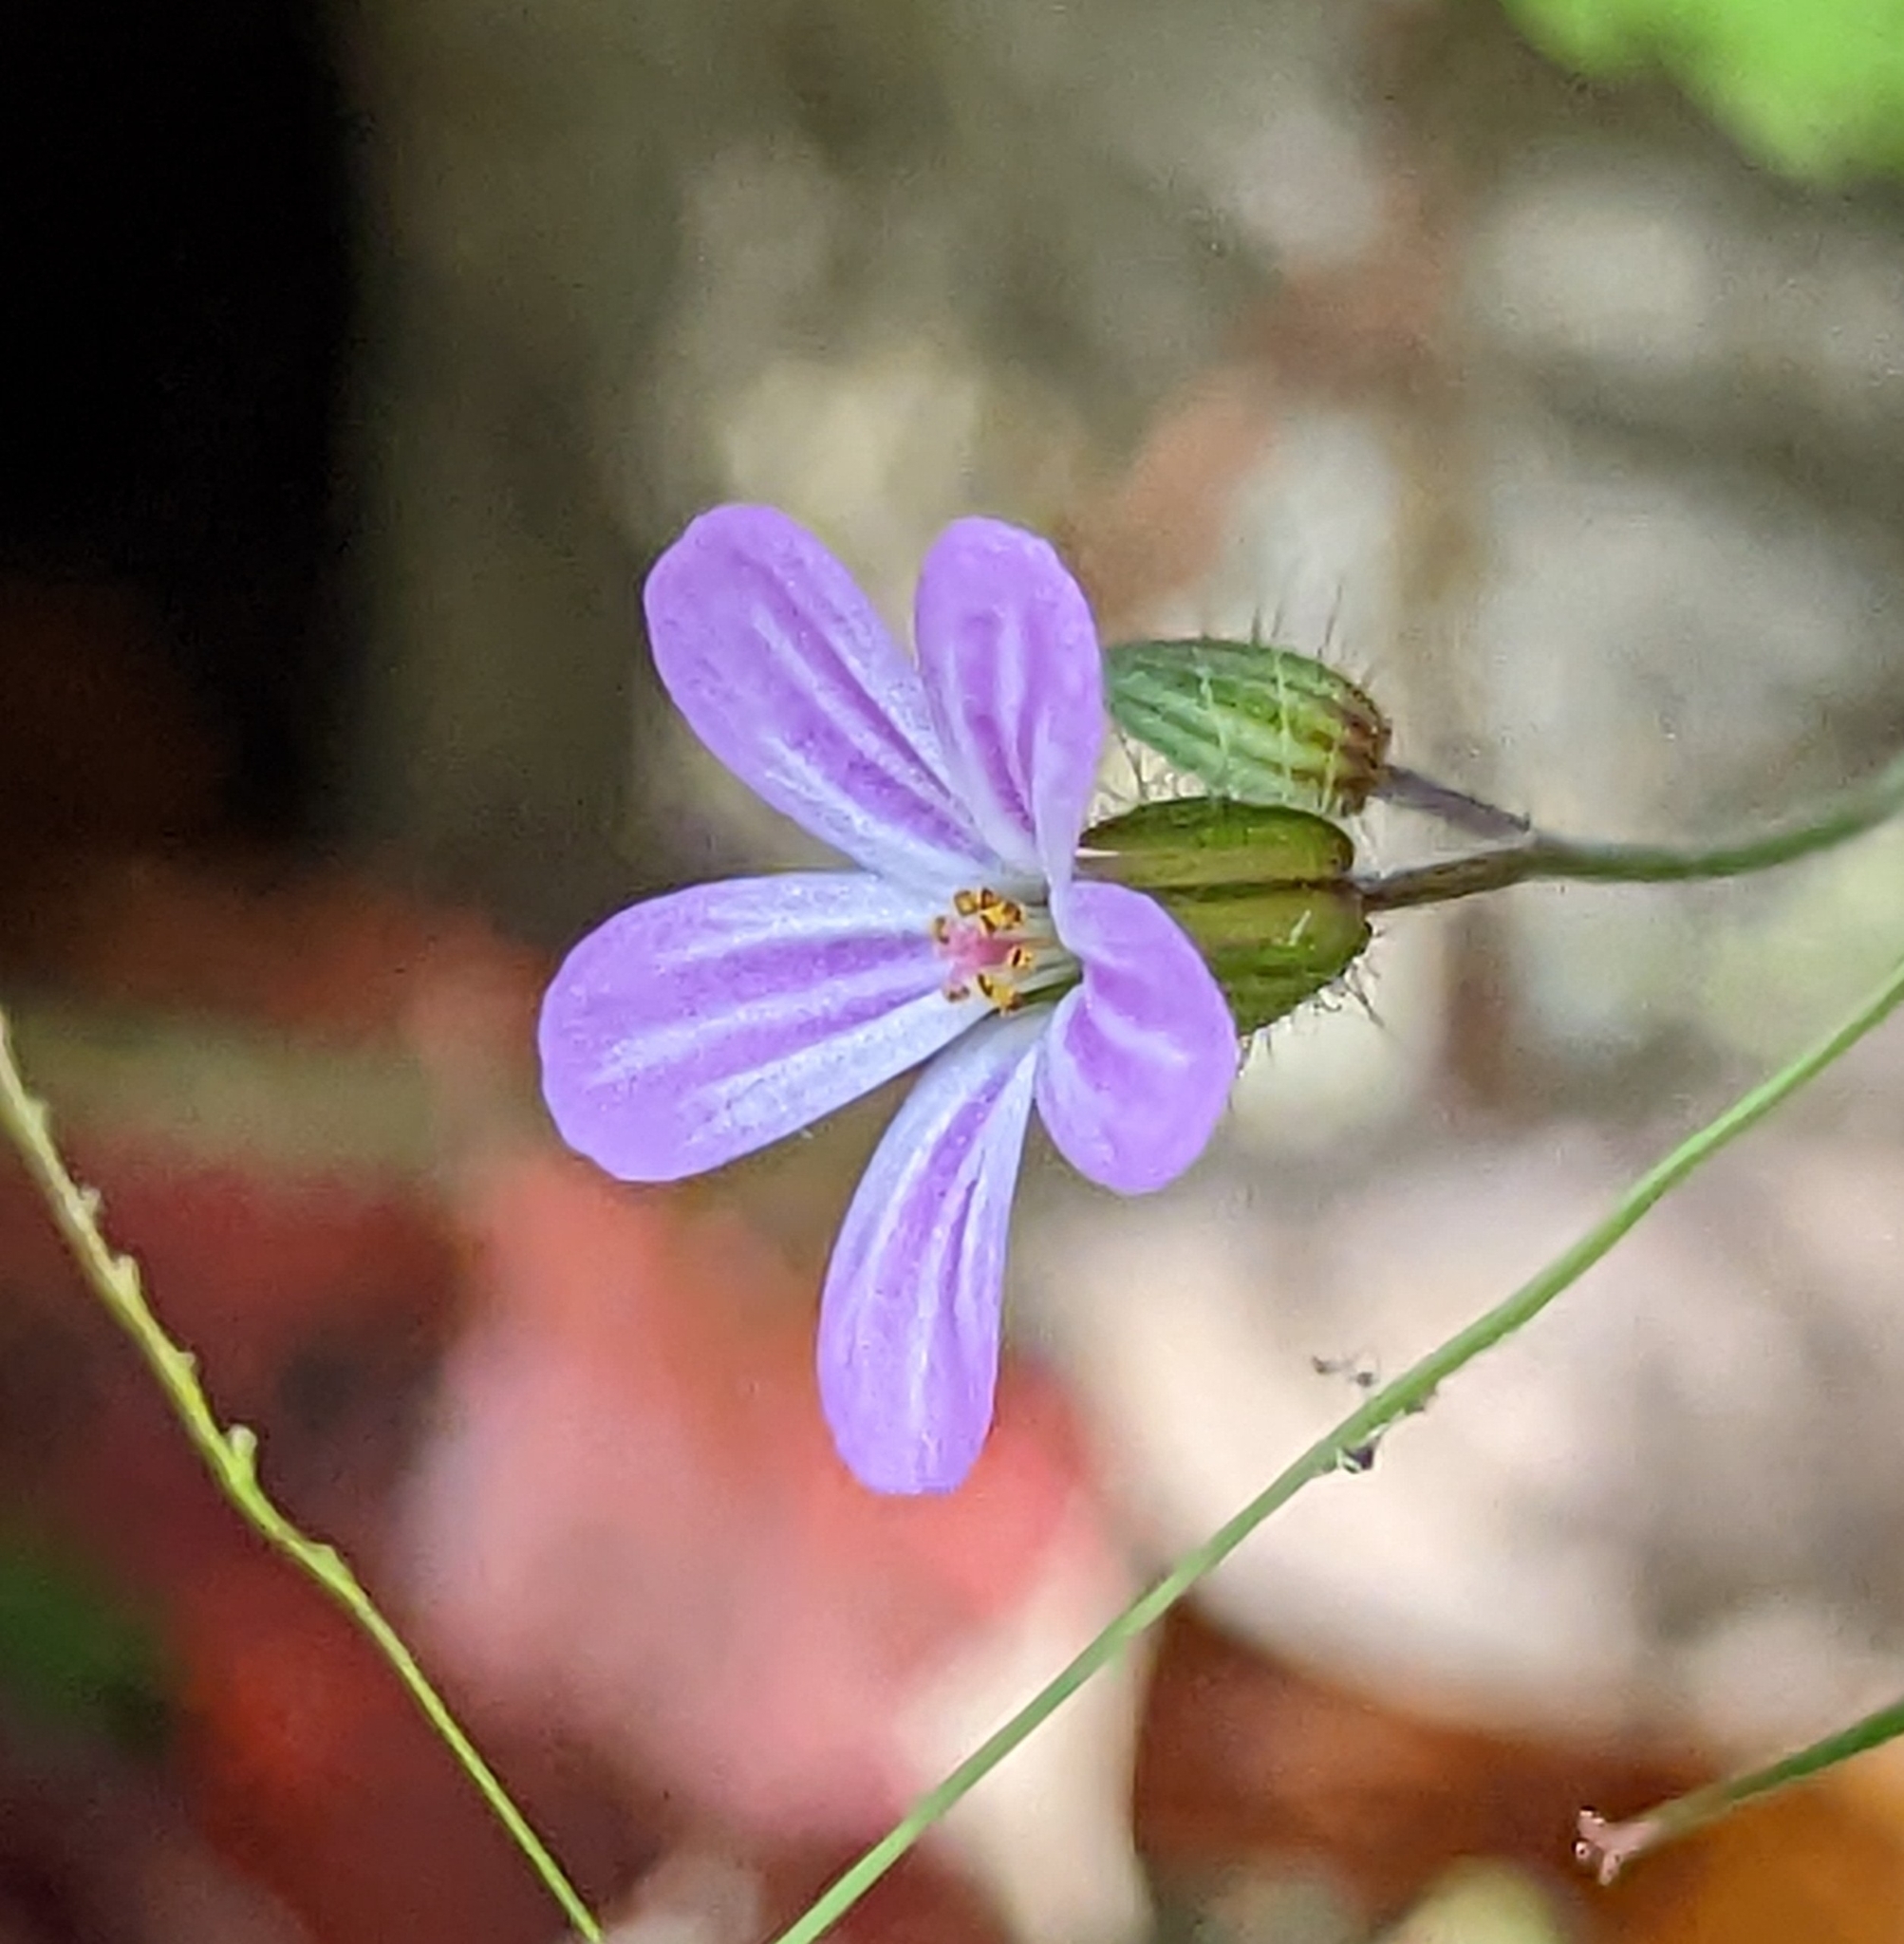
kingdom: Plantae
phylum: Tracheophyta
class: Magnoliopsida
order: Geraniales
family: Geraniaceae
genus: Geranium
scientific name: Geranium robertianum
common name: Herb-robert
